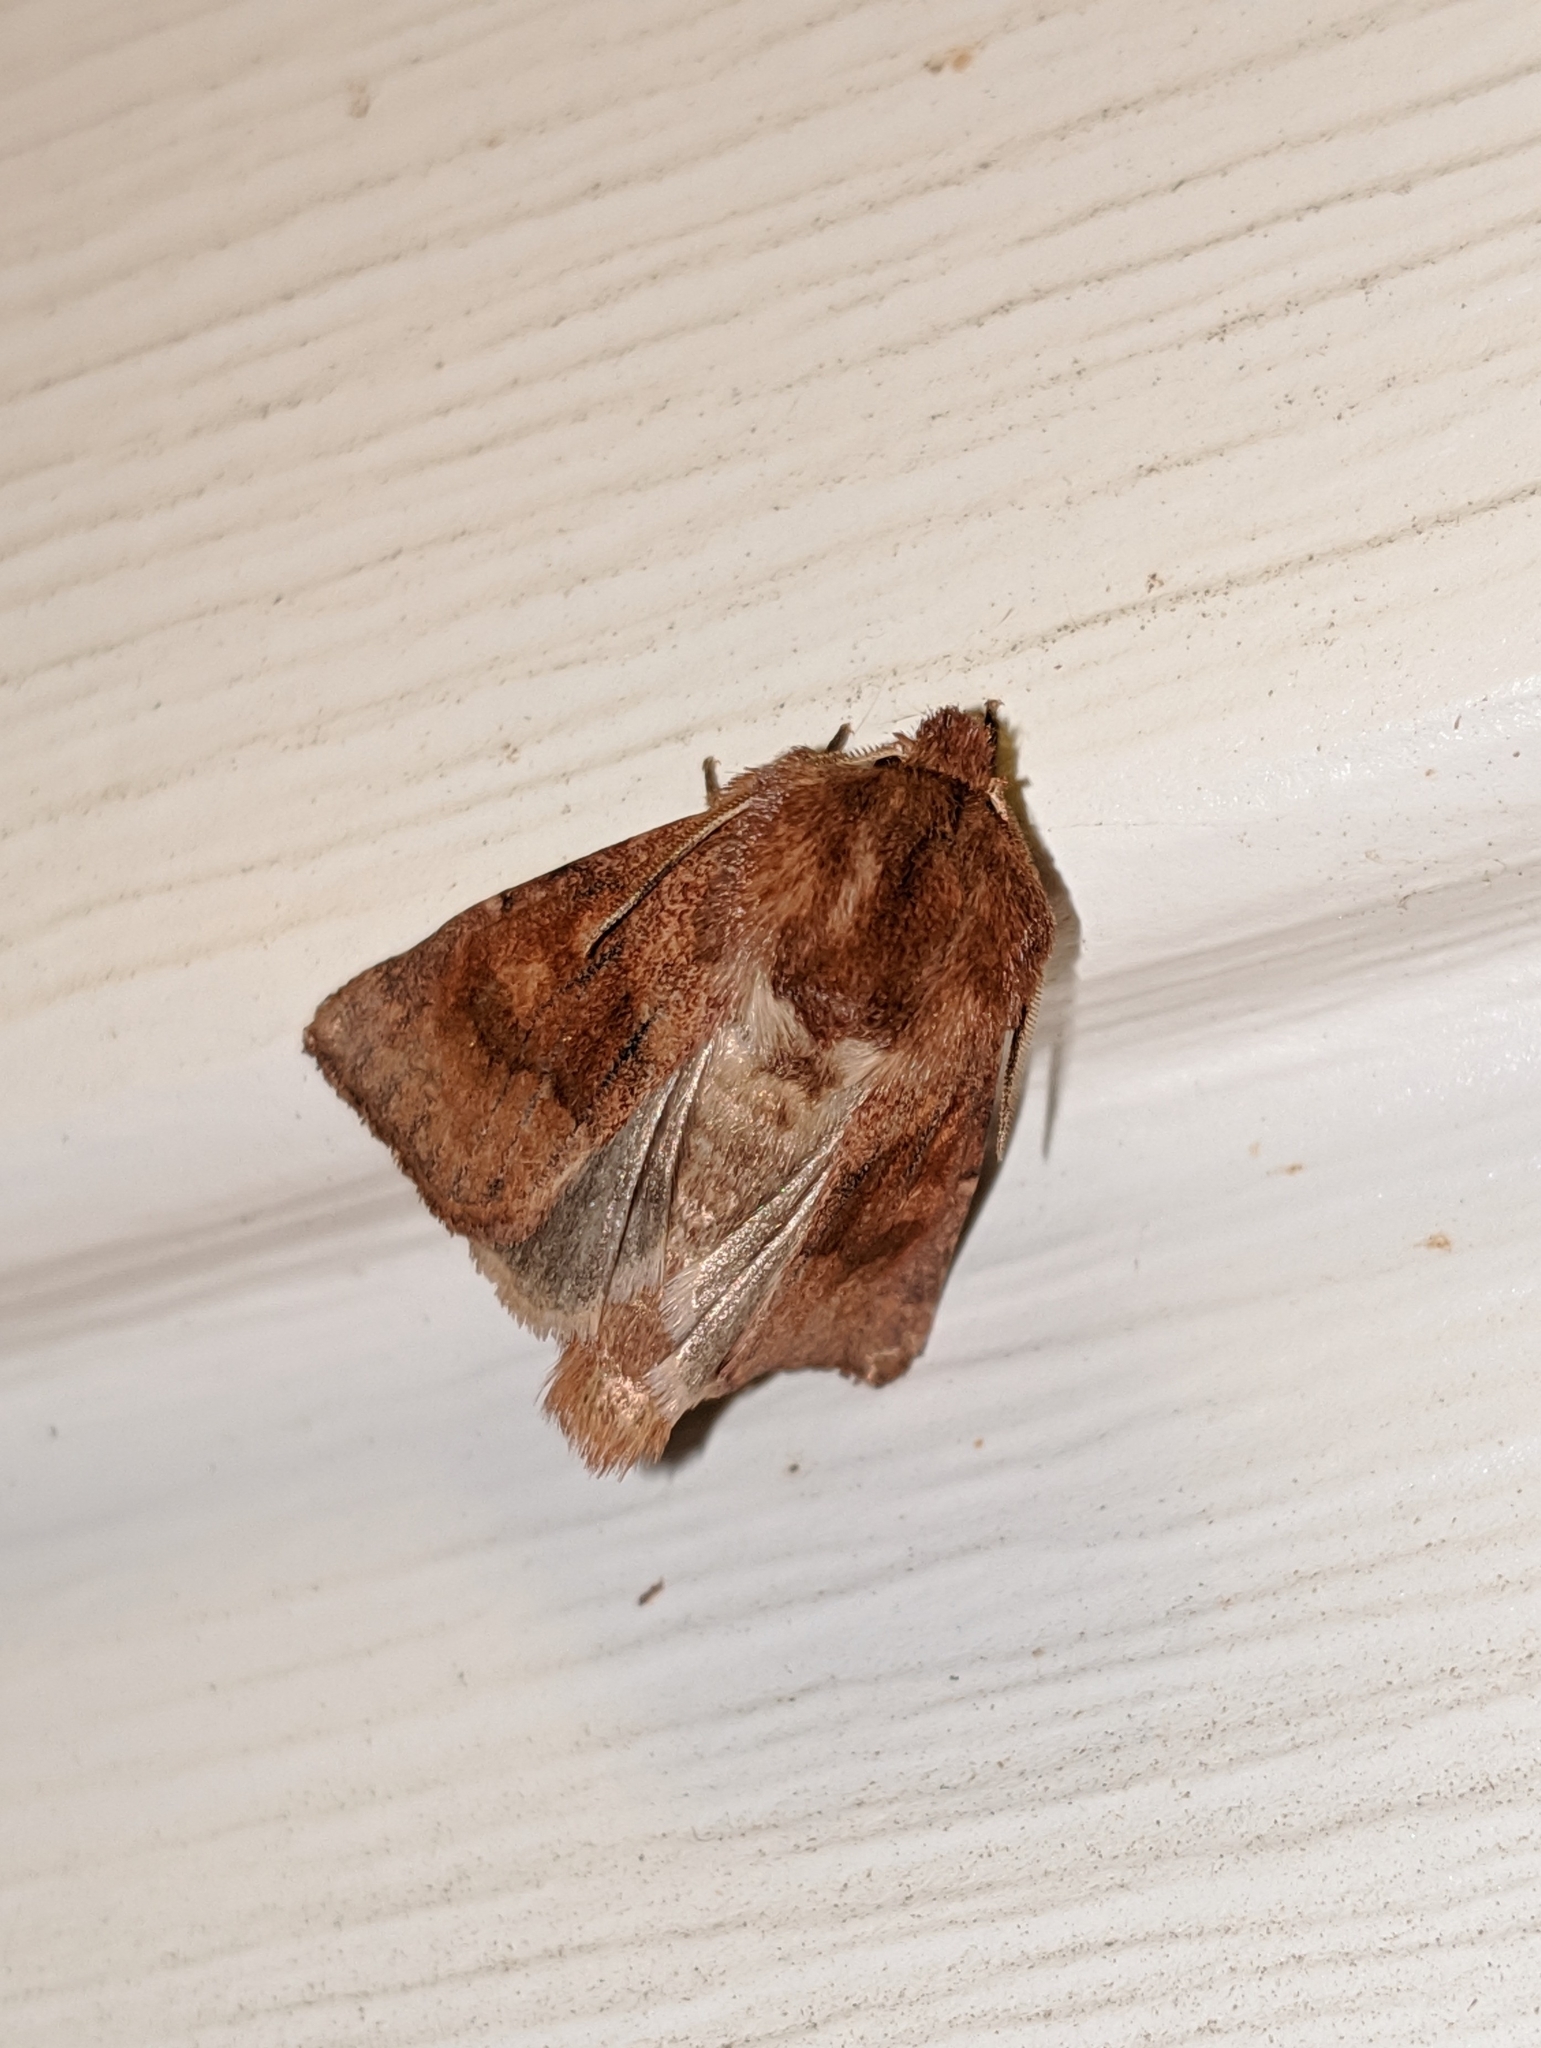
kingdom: Animalia
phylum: Arthropoda
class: Insecta
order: Lepidoptera
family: Noctuidae
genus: Nephelodes
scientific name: Nephelodes minians
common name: Bronzed cutworm
